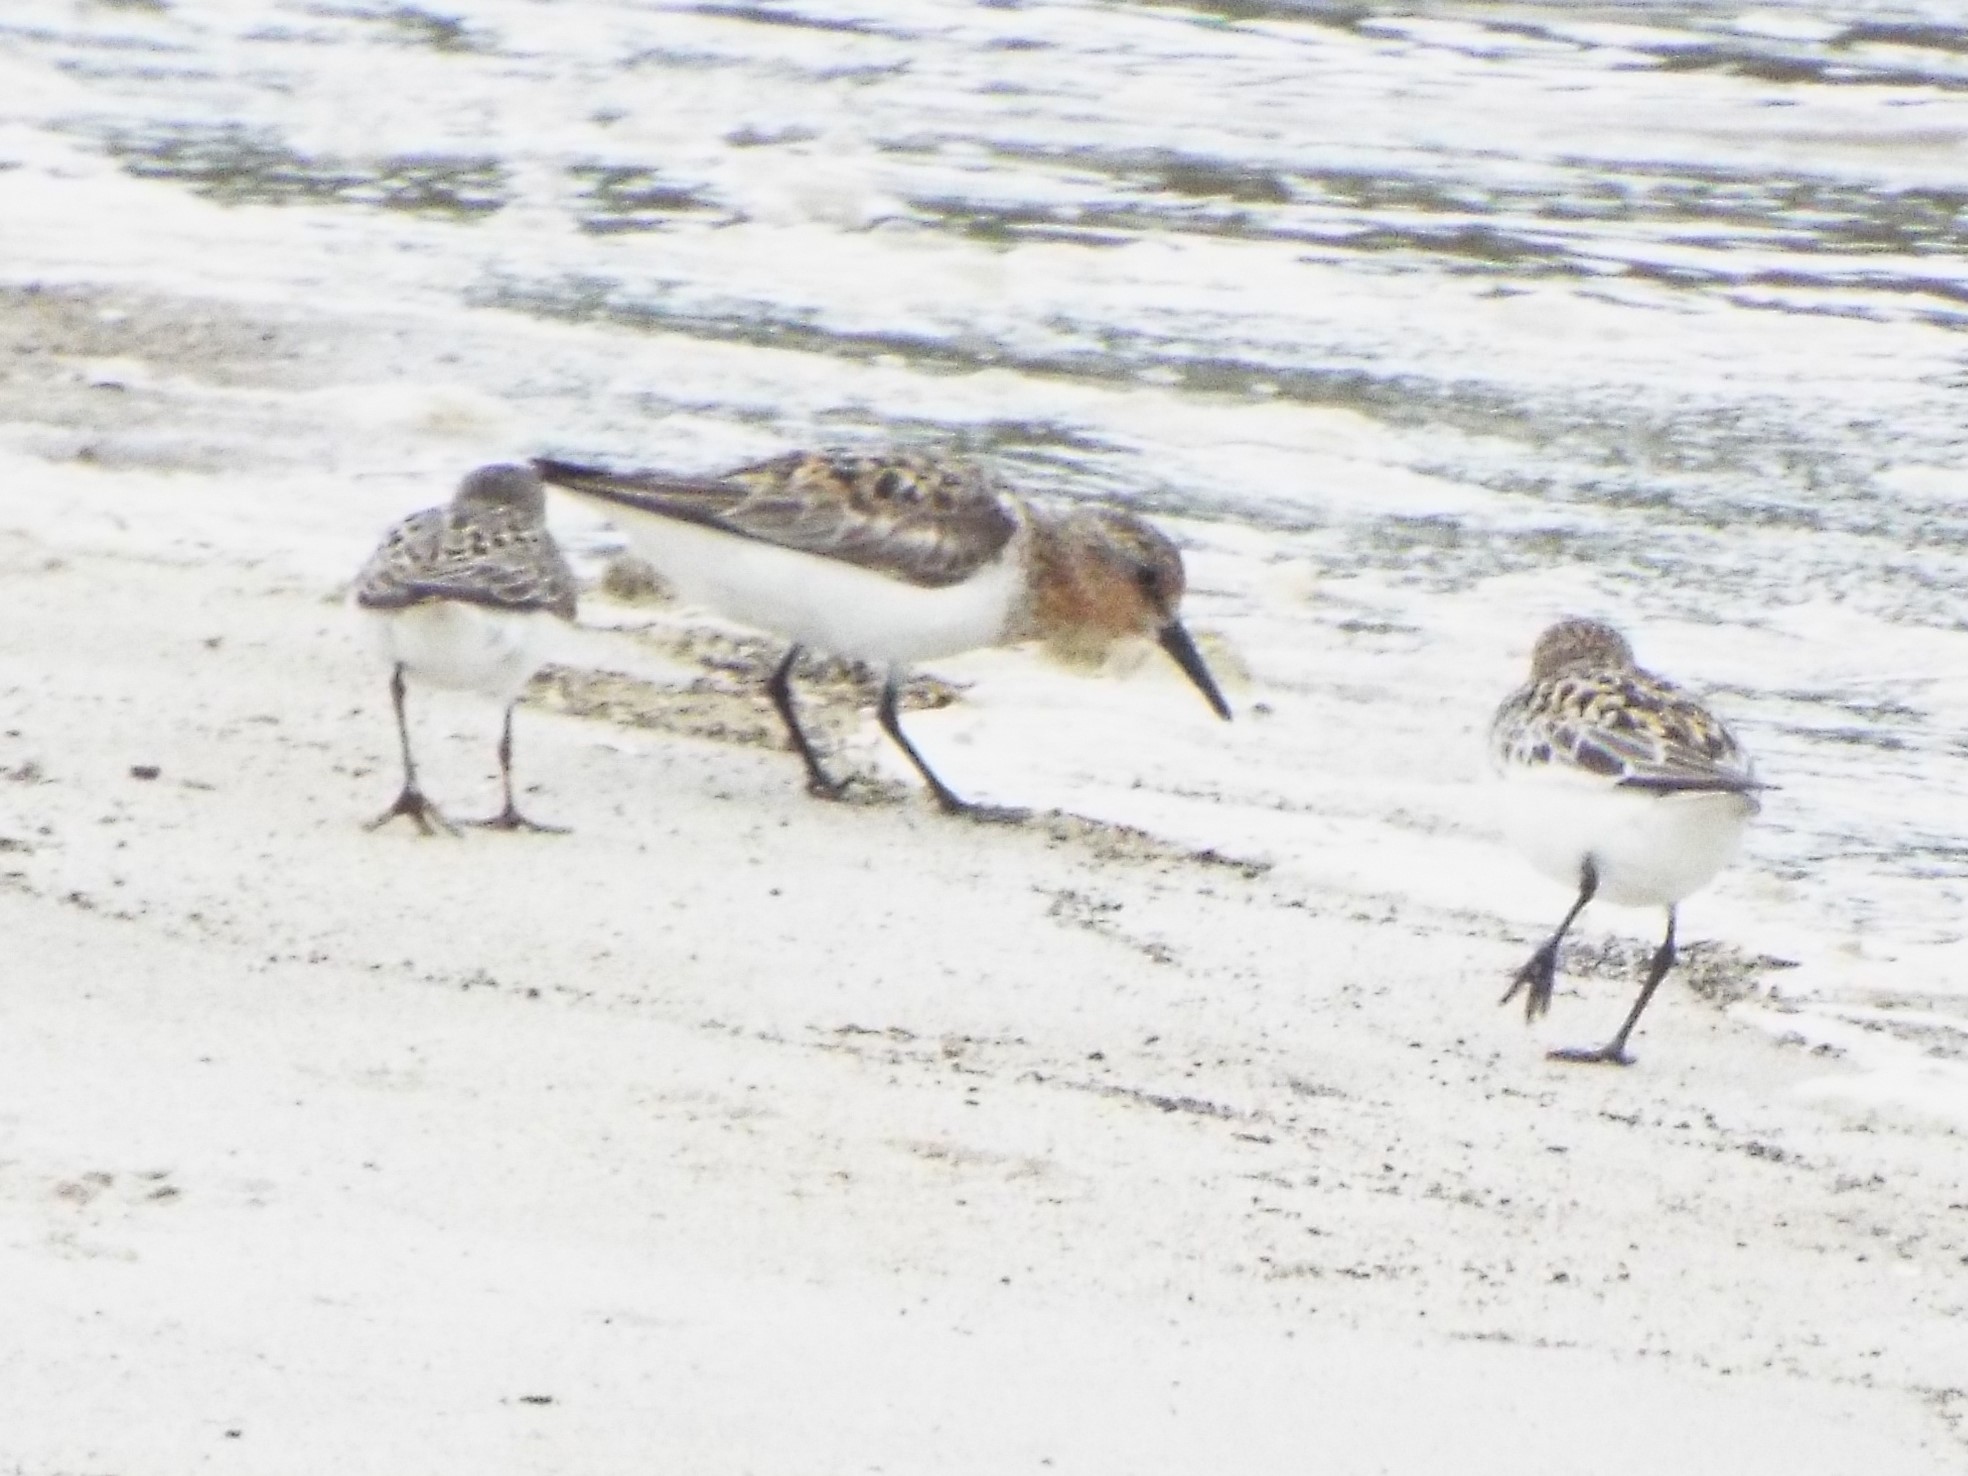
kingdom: Animalia
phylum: Chordata
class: Aves
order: Charadriiformes
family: Scolopacidae
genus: Calidris
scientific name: Calidris alba
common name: Sanderling
